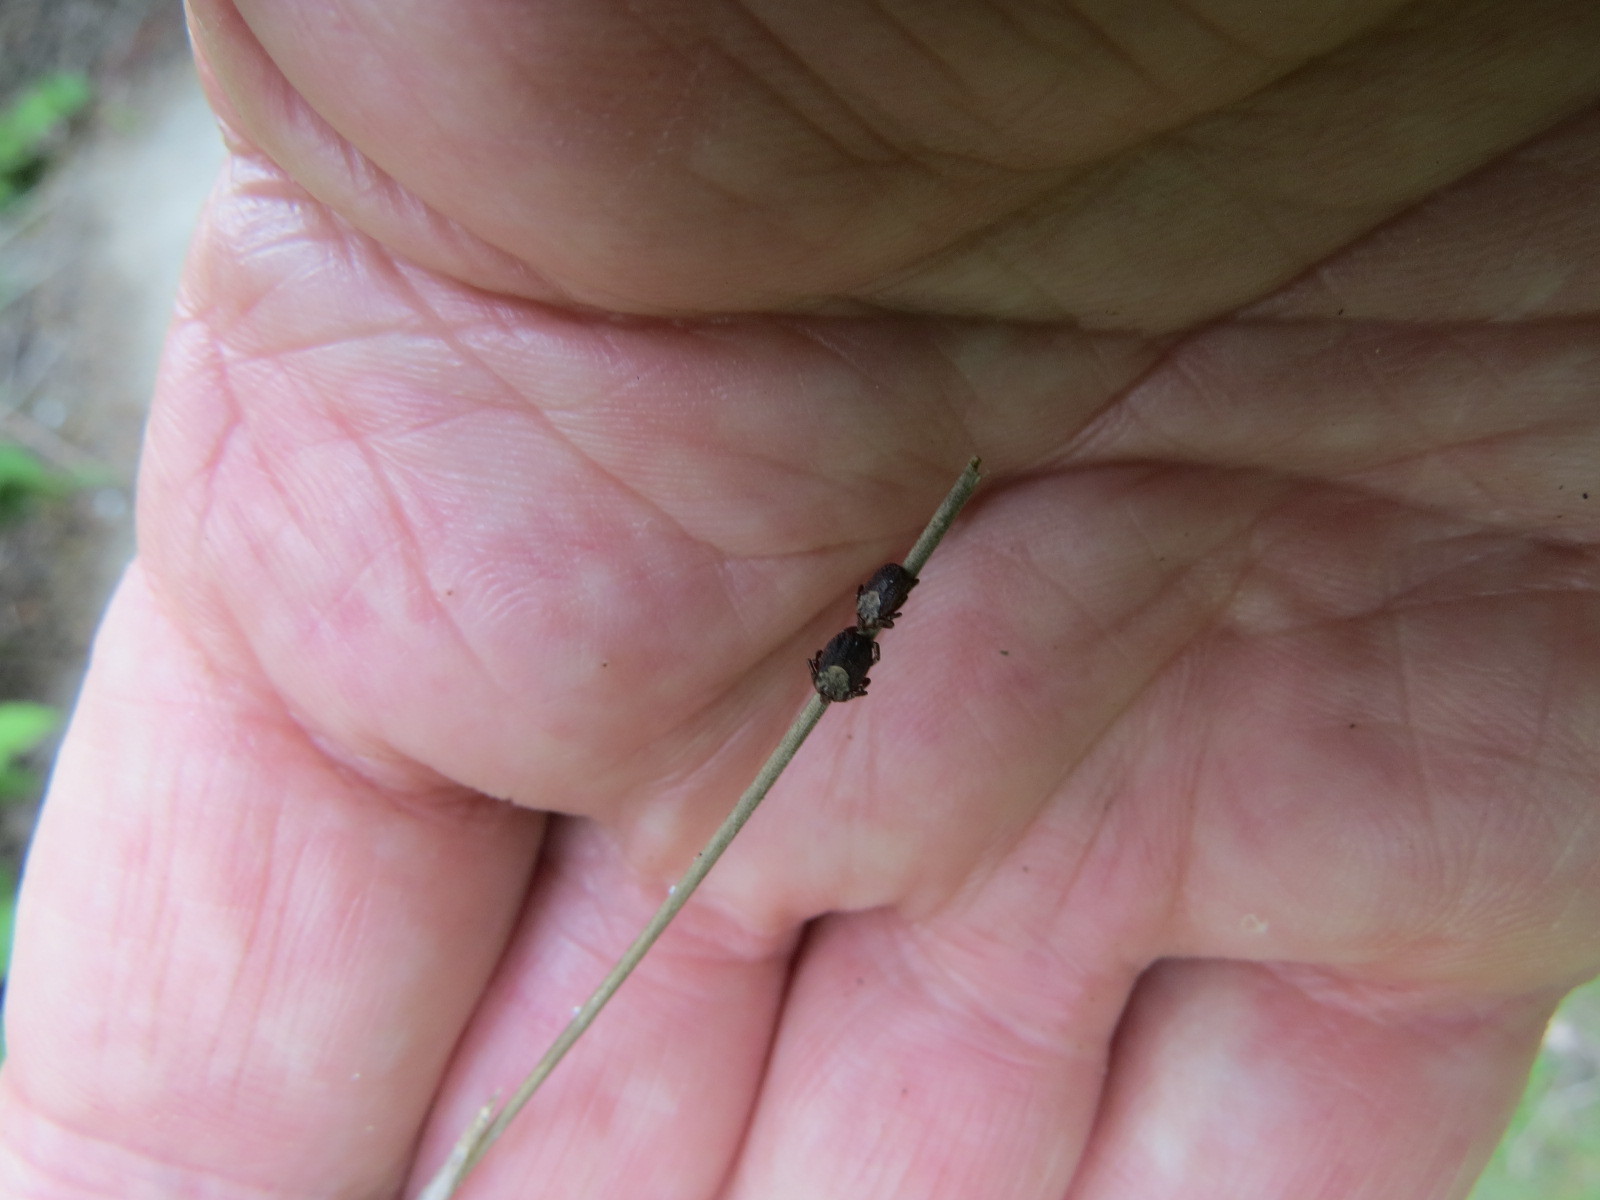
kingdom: Animalia
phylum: Arthropoda
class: Arachnida
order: Ixodida
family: Ixodidae
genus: Dermacentor
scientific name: Dermacentor occidentalis
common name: Net tick
